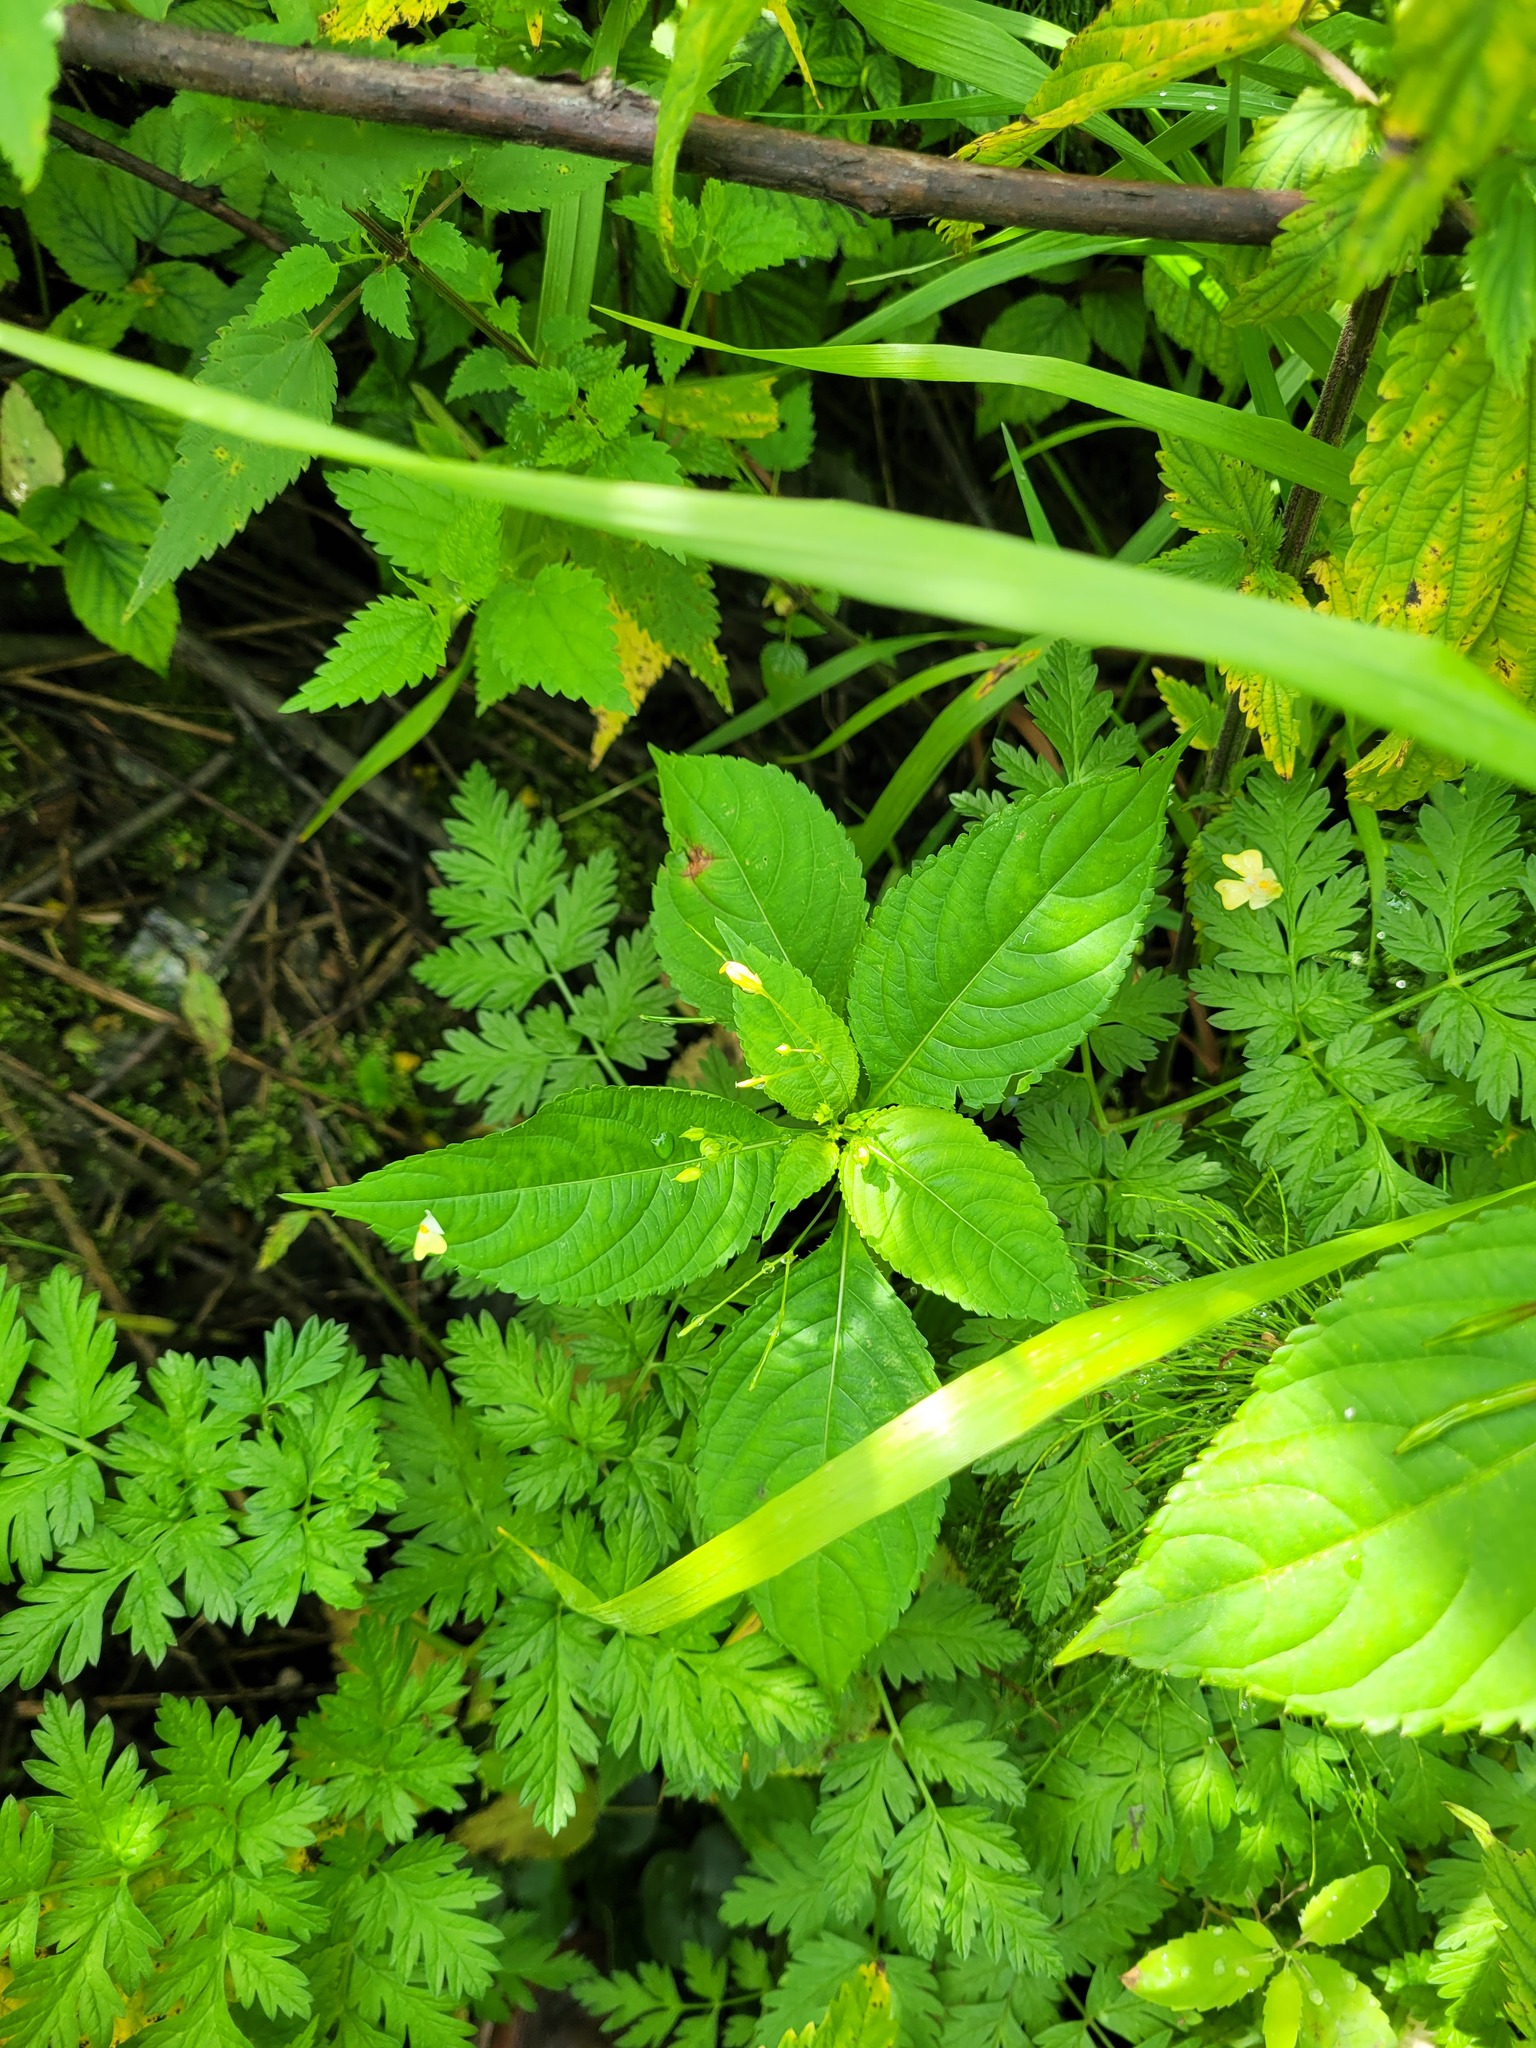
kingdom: Plantae
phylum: Tracheophyta
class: Magnoliopsida
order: Ericales
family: Balsaminaceae
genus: Impatiens
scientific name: Impatiens parviflora
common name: Small balsam
